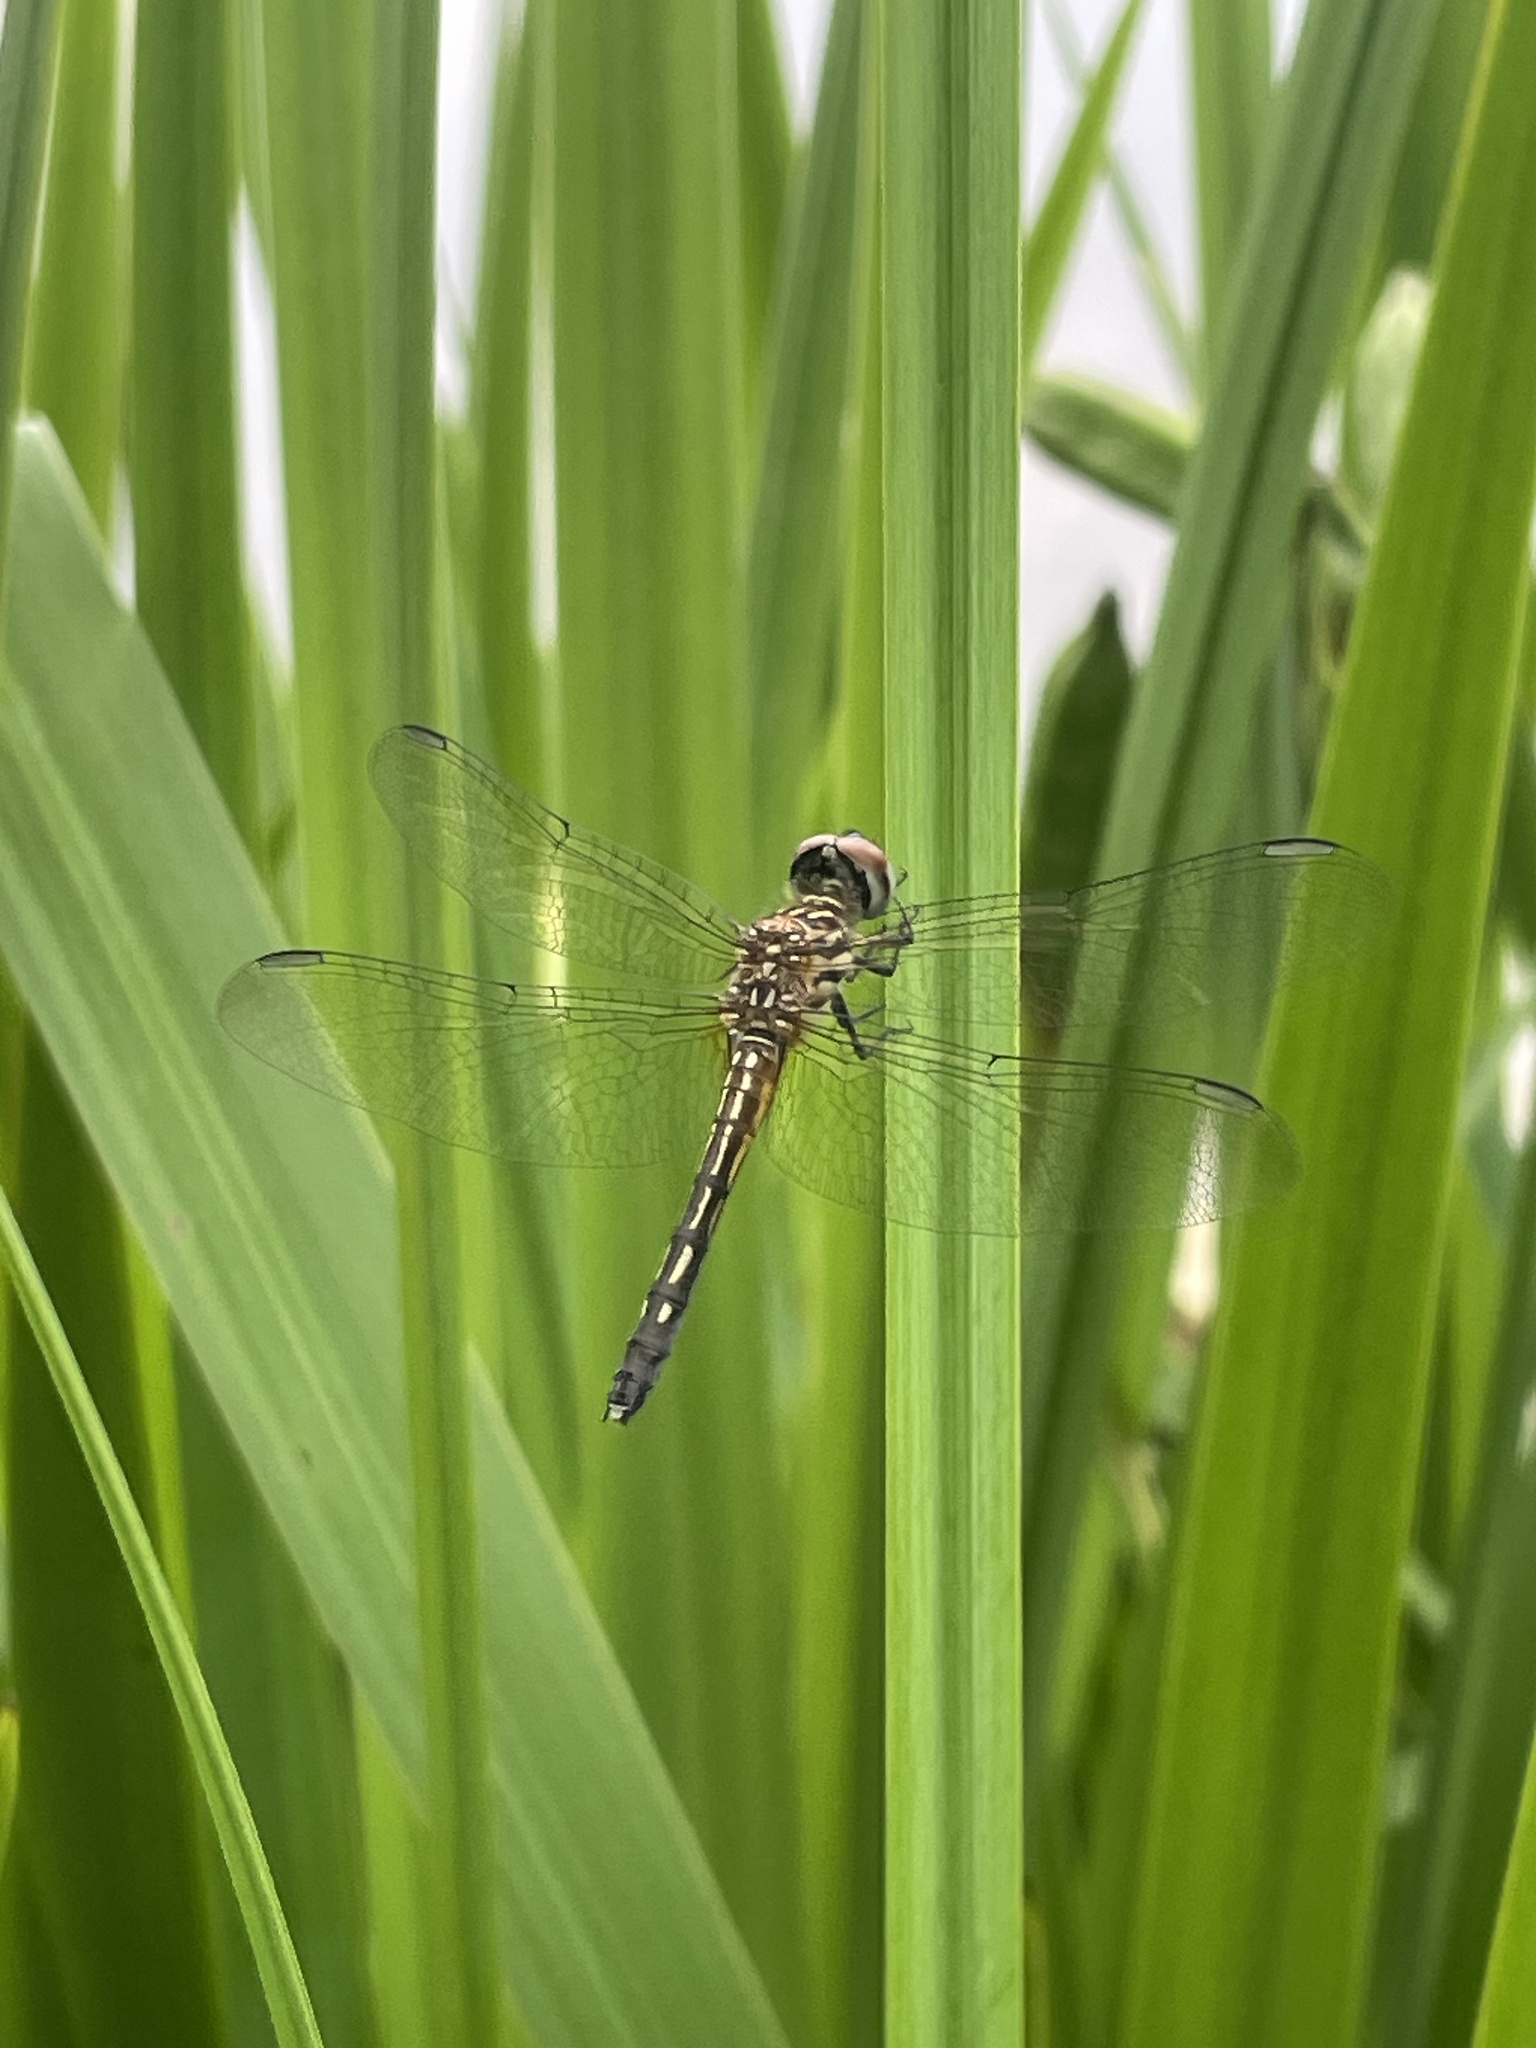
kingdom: Animalia
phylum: Arthropoda
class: Insecta
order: Odonata
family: Libellulidae
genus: Pachydiplax
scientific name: Pachydiplax longipennis
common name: Blue dasher
